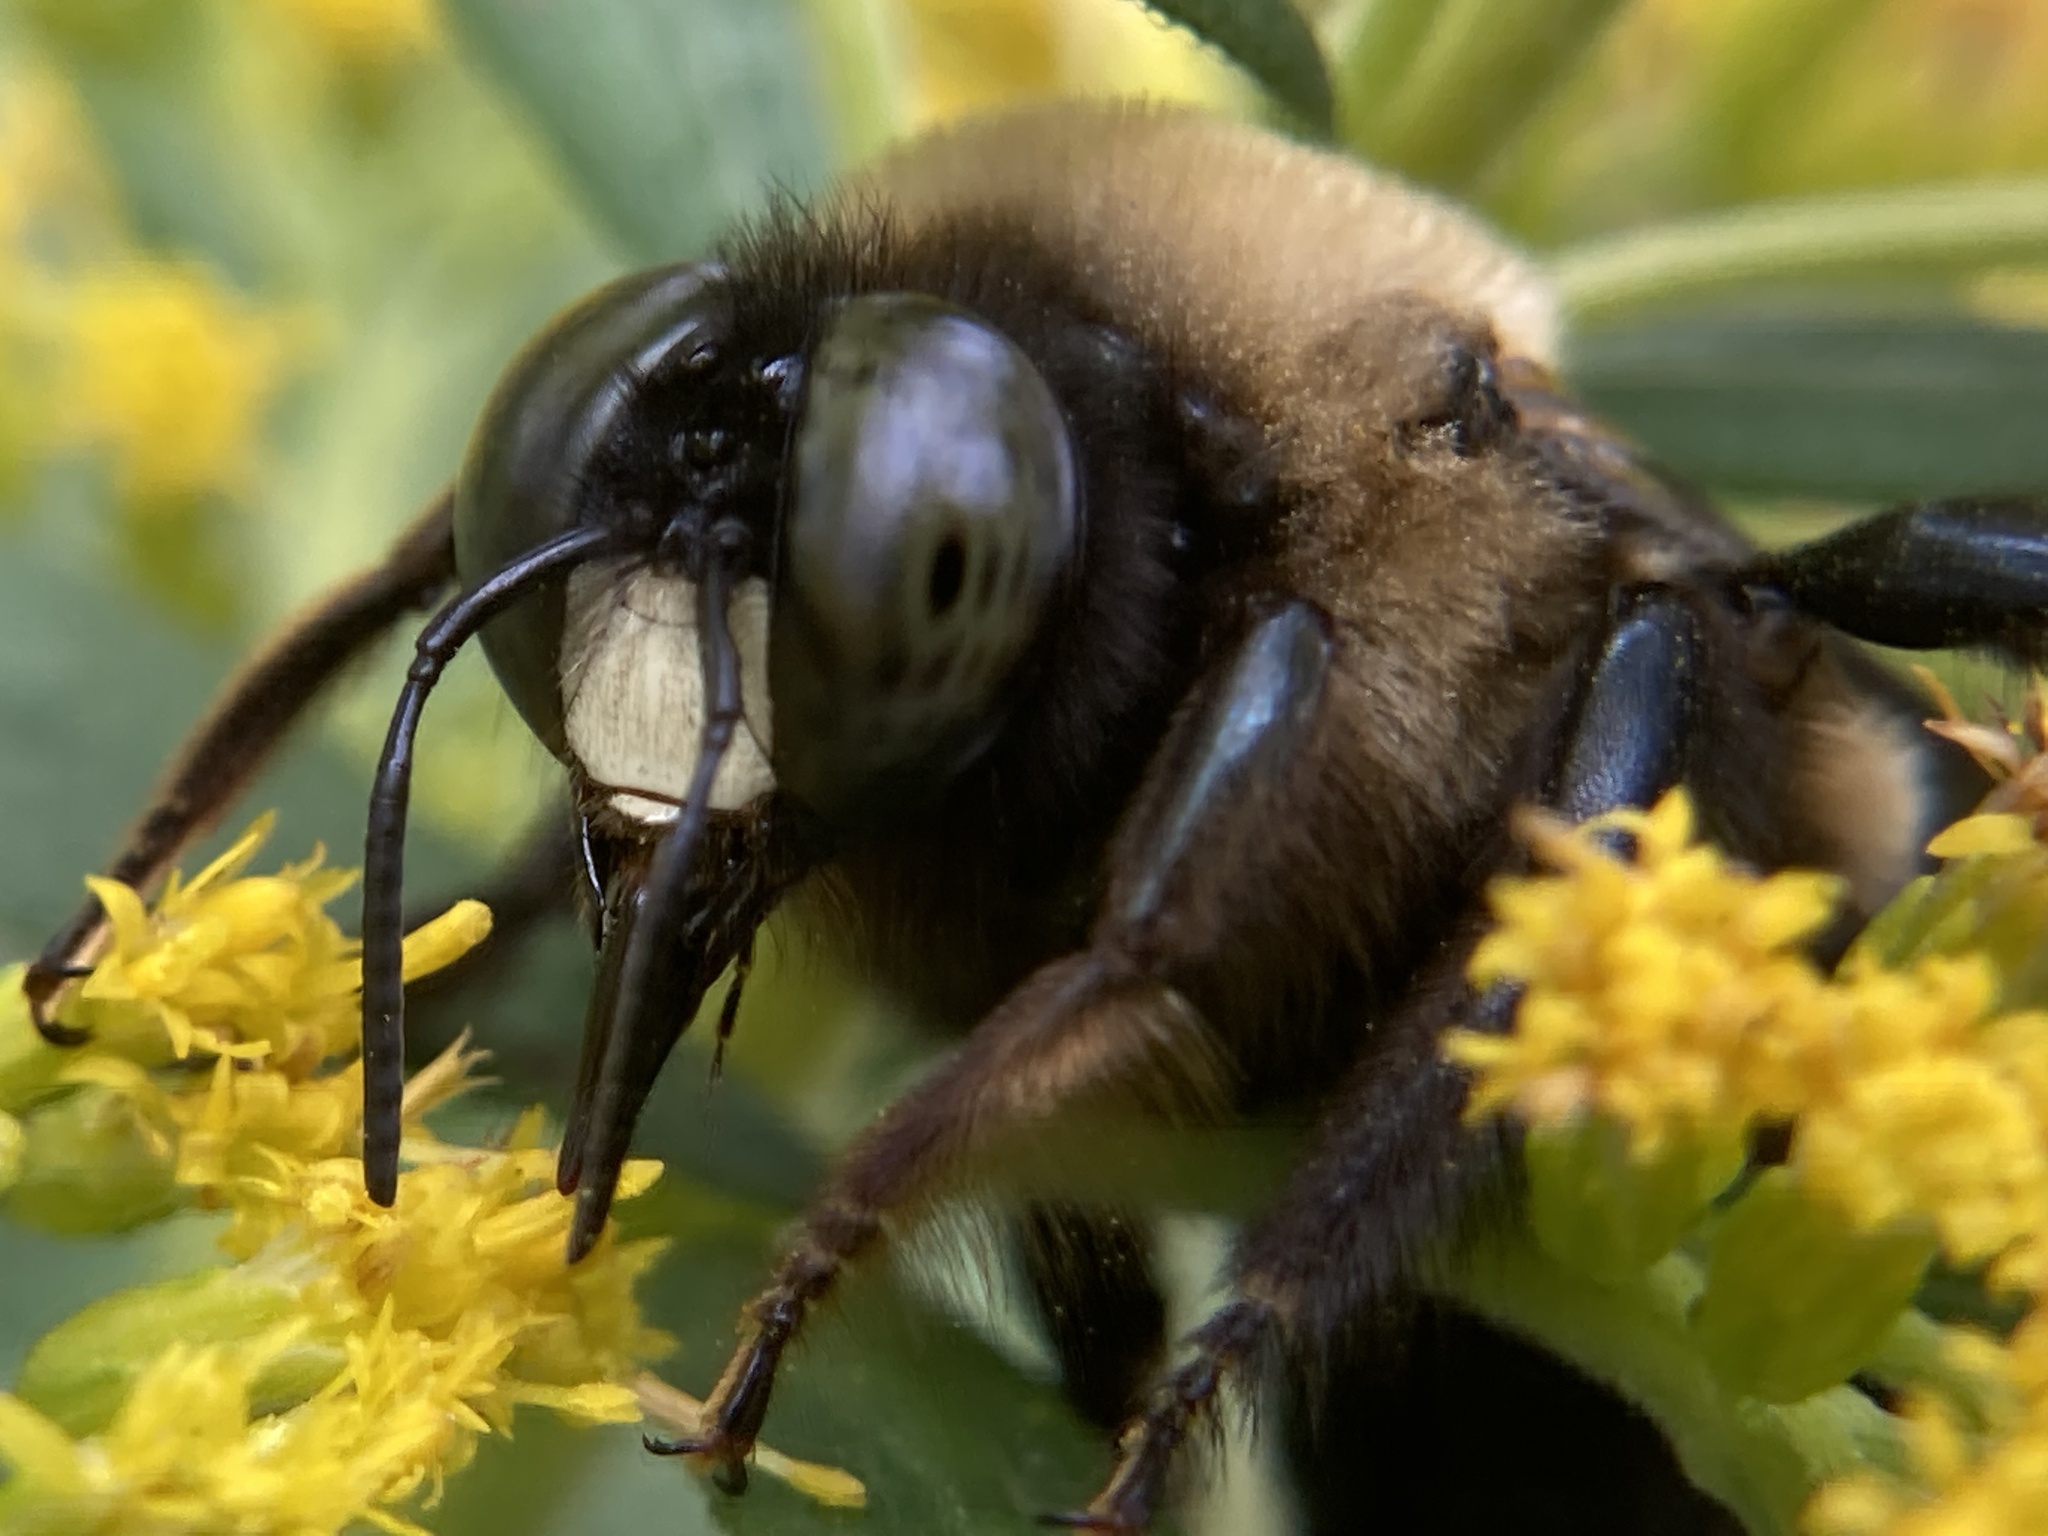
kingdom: Animalia
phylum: Arthropoda
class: Insecta
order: Hymenoptera
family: Apidae
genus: Xylocopa
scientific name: Xylocopa virginica
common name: Carpenter bee
